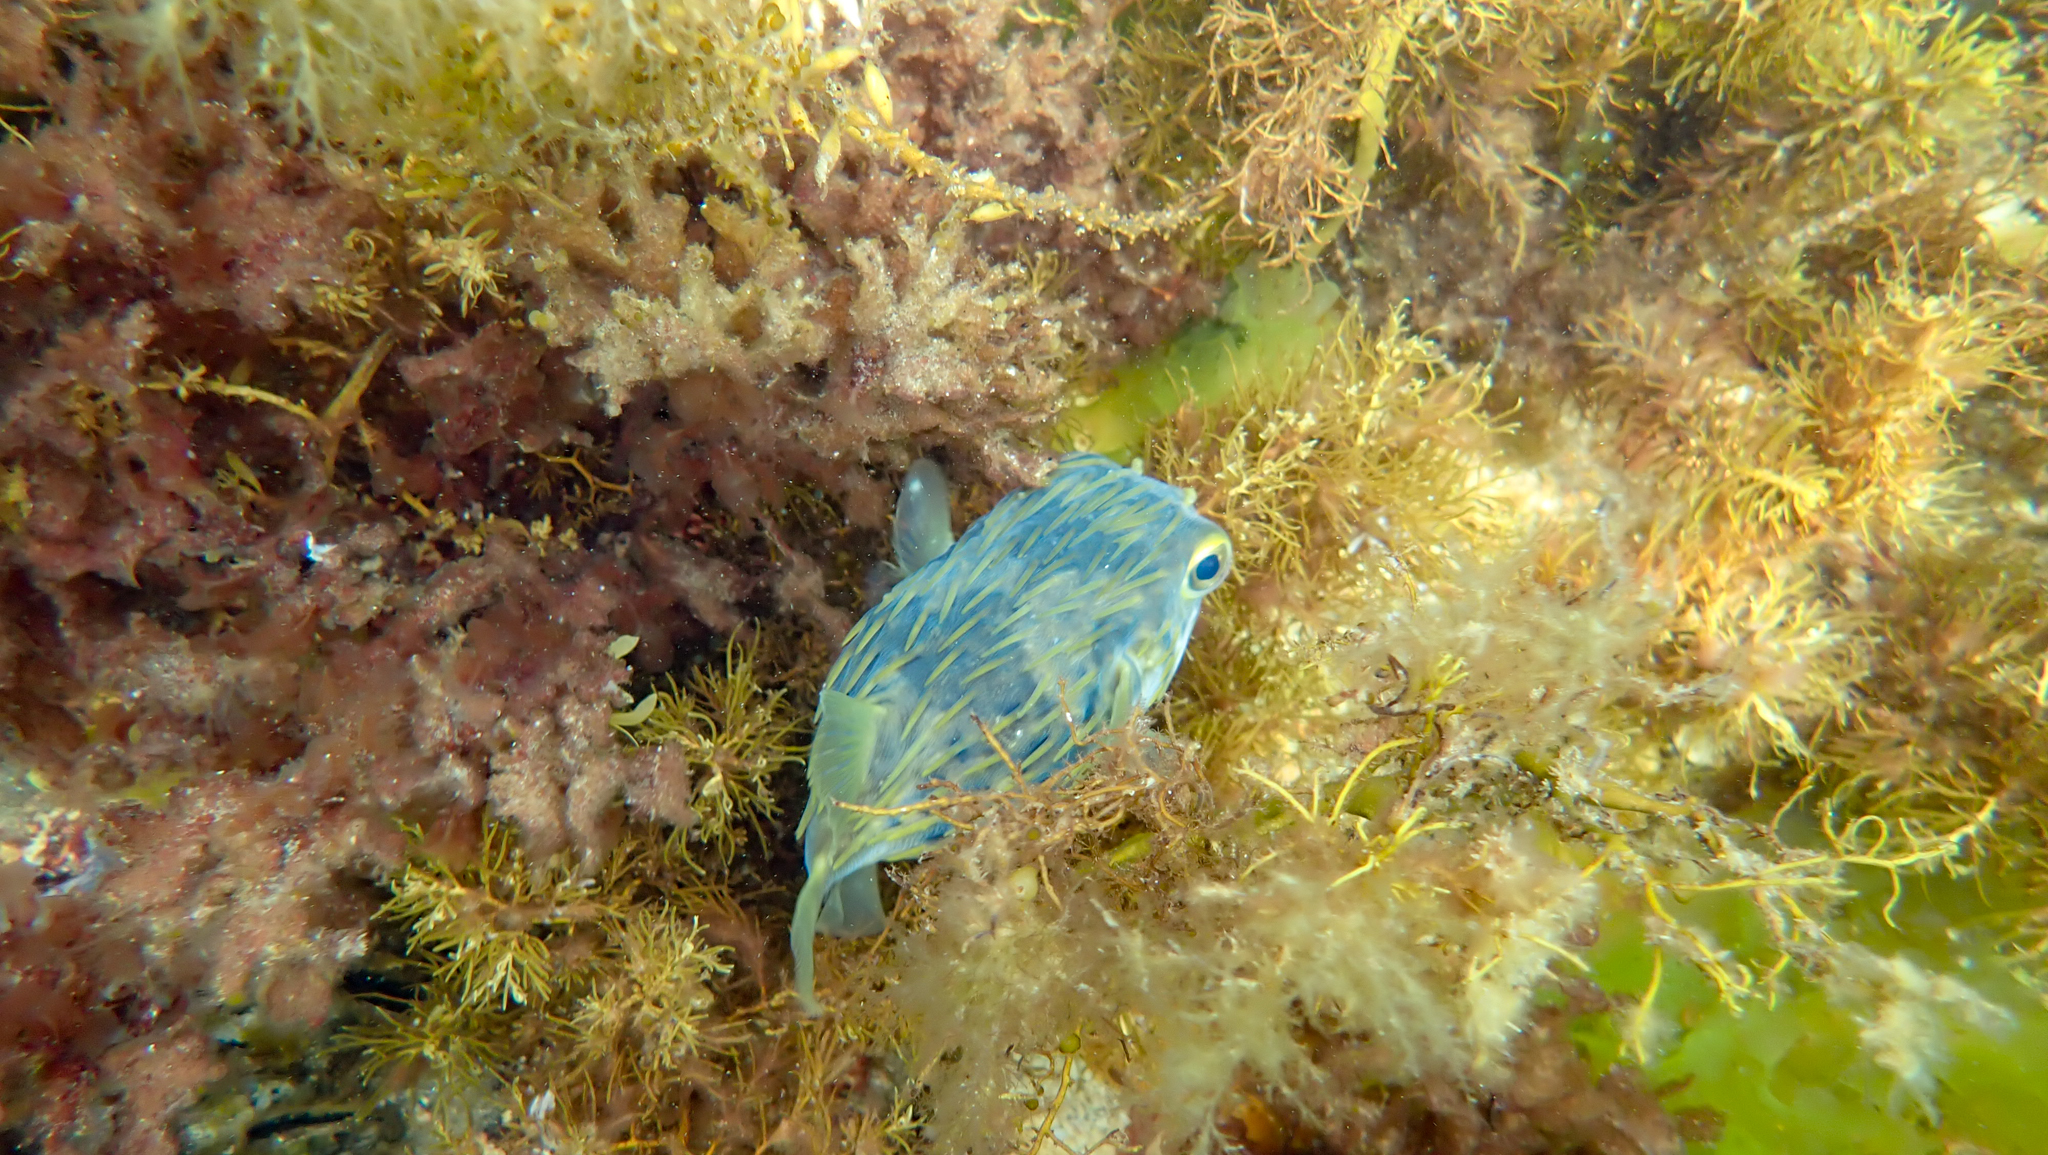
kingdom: Animalia
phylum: Chordata
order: Tetraodontiformes
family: Diodontidae
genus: Diodon
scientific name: Diodon nicthemerus
